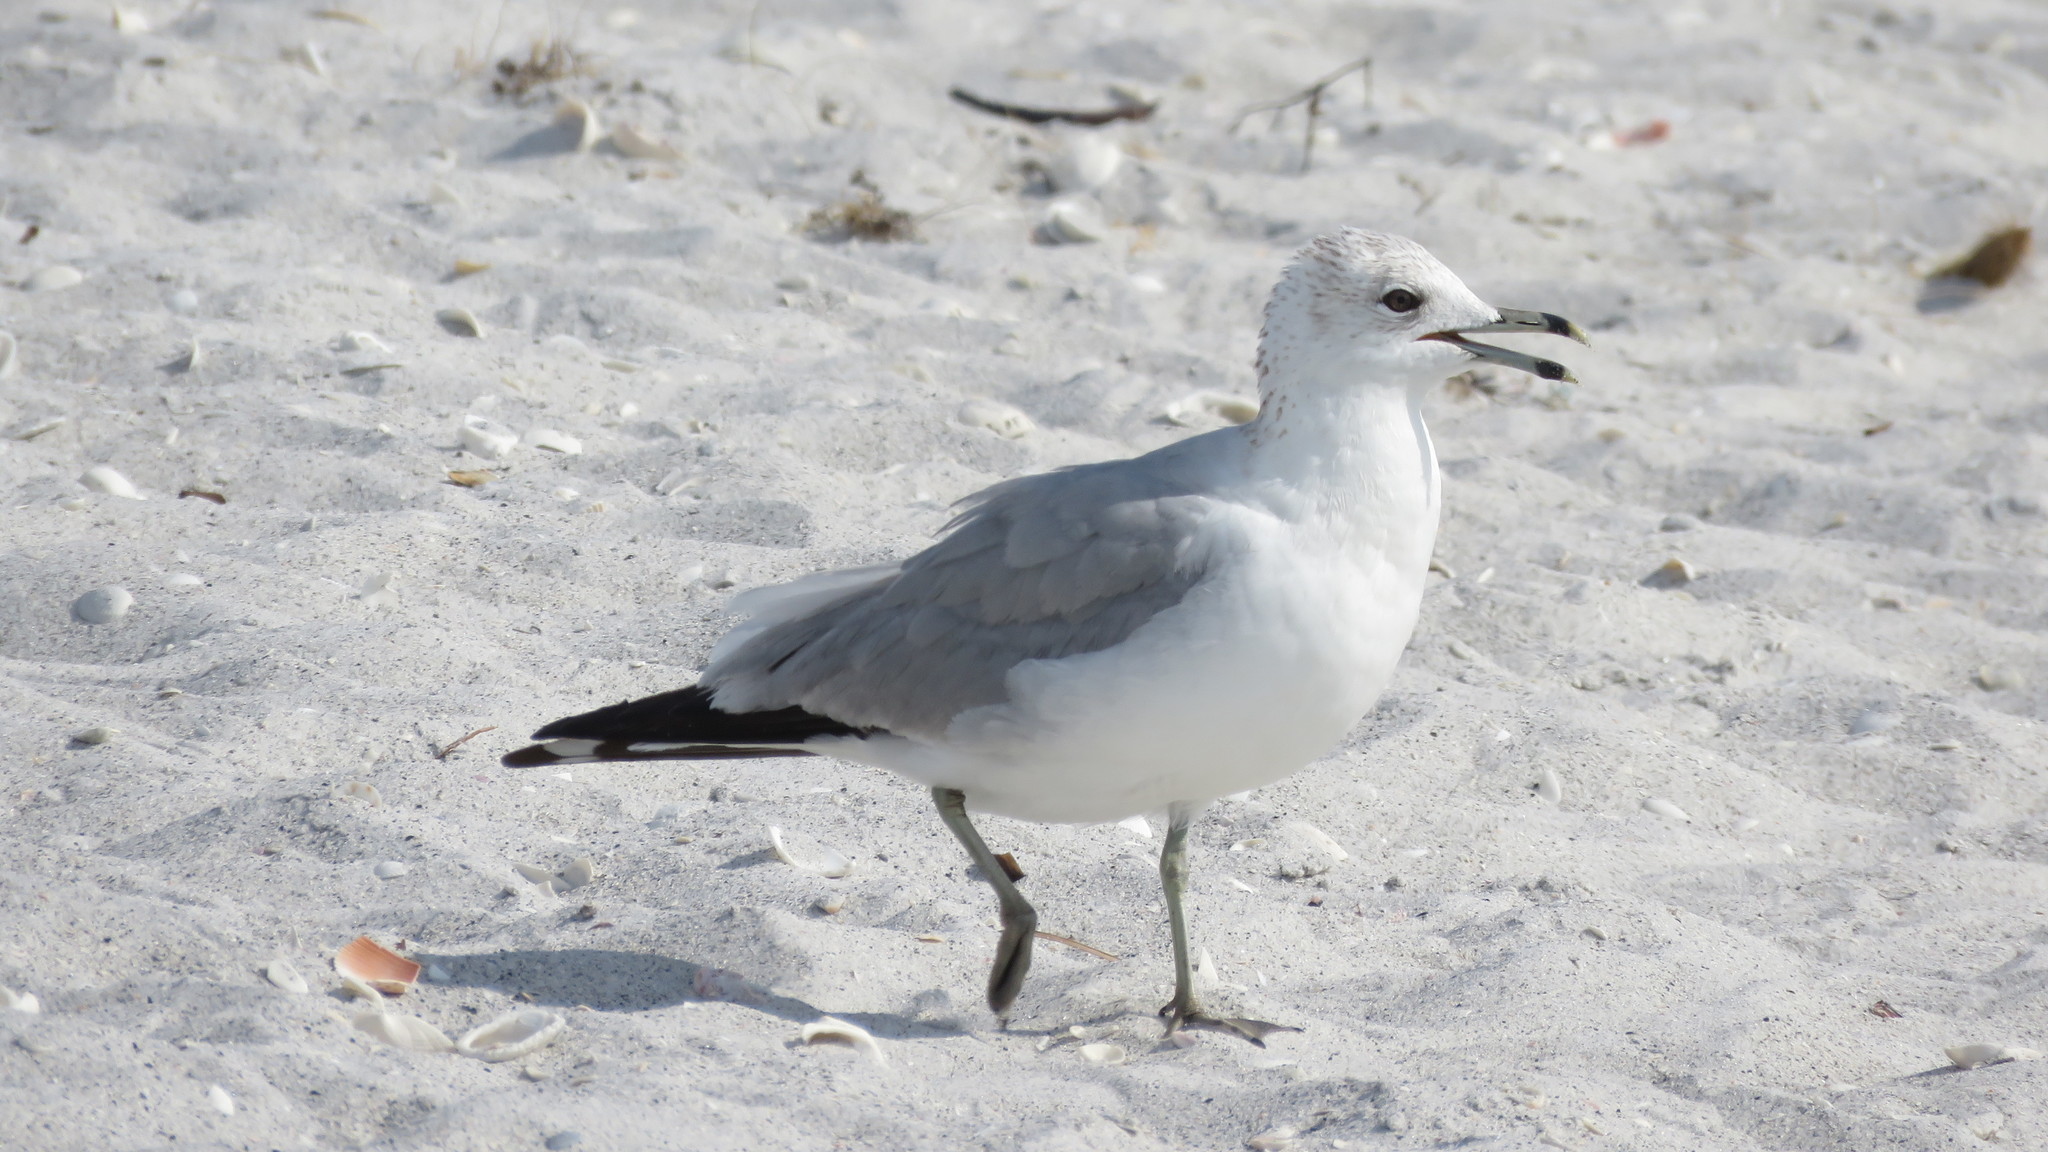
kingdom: Animalia
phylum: Chordata
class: Aves
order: Charadriiformes
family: Laridae
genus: Larus
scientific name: Larus delawarensis
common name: Ring-billed gull
